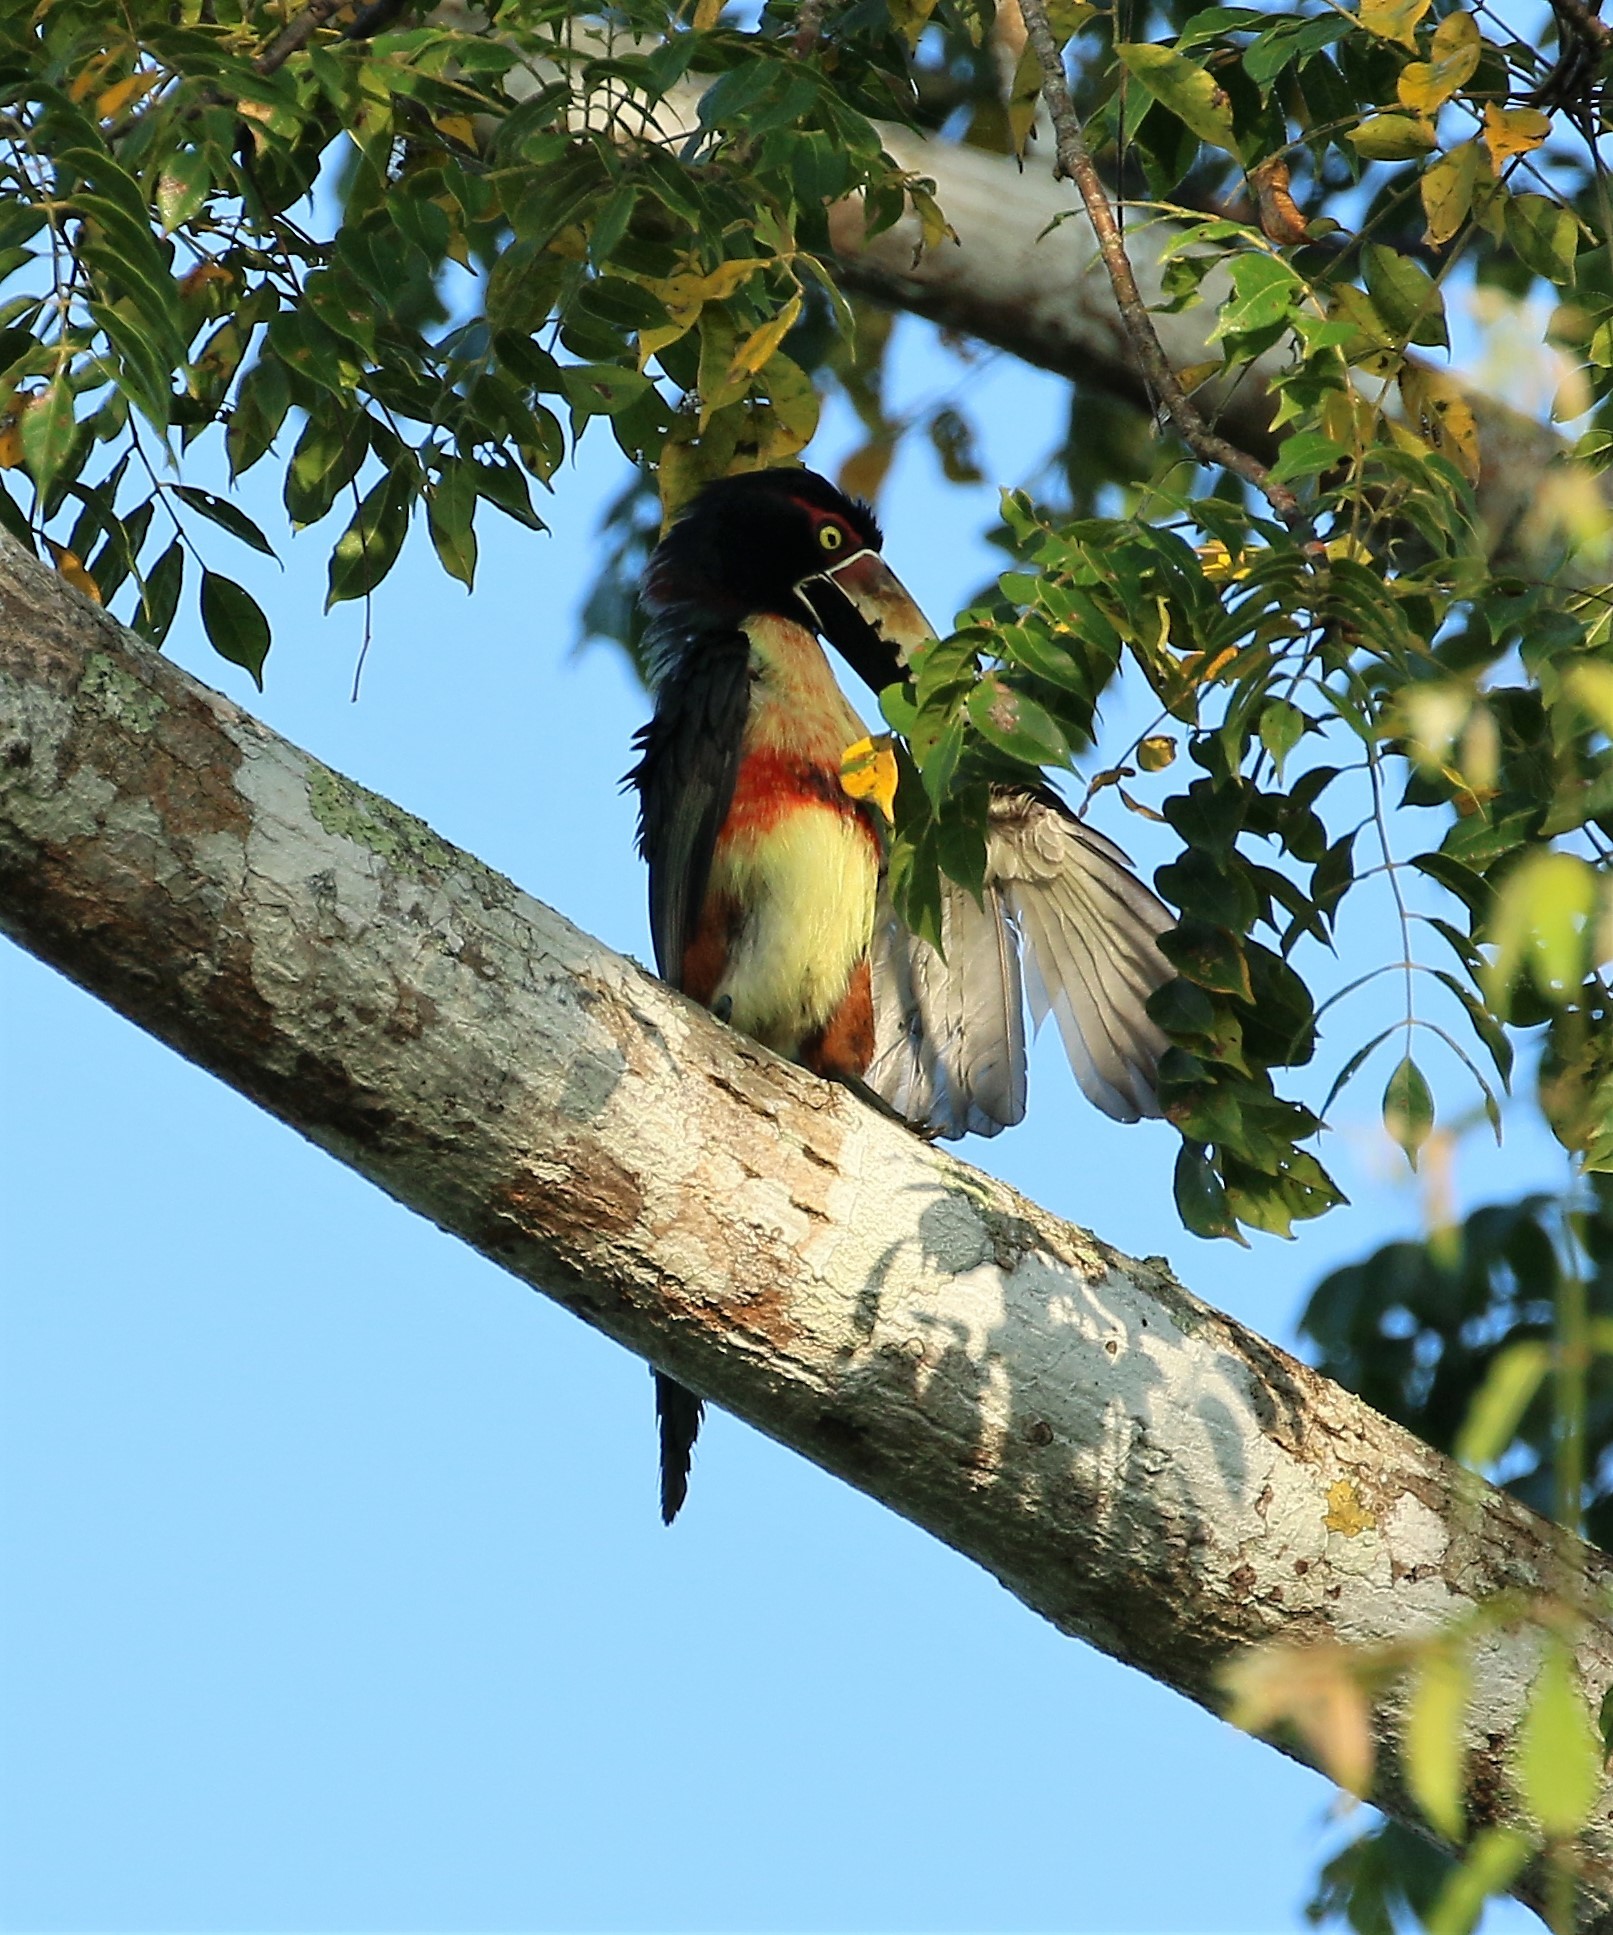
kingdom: Animalia
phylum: Chordata
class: Aves
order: Piciformes
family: Ramphastidae
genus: Pteroglossus
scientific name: Pteroglossus torquatus
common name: Collared aracari
